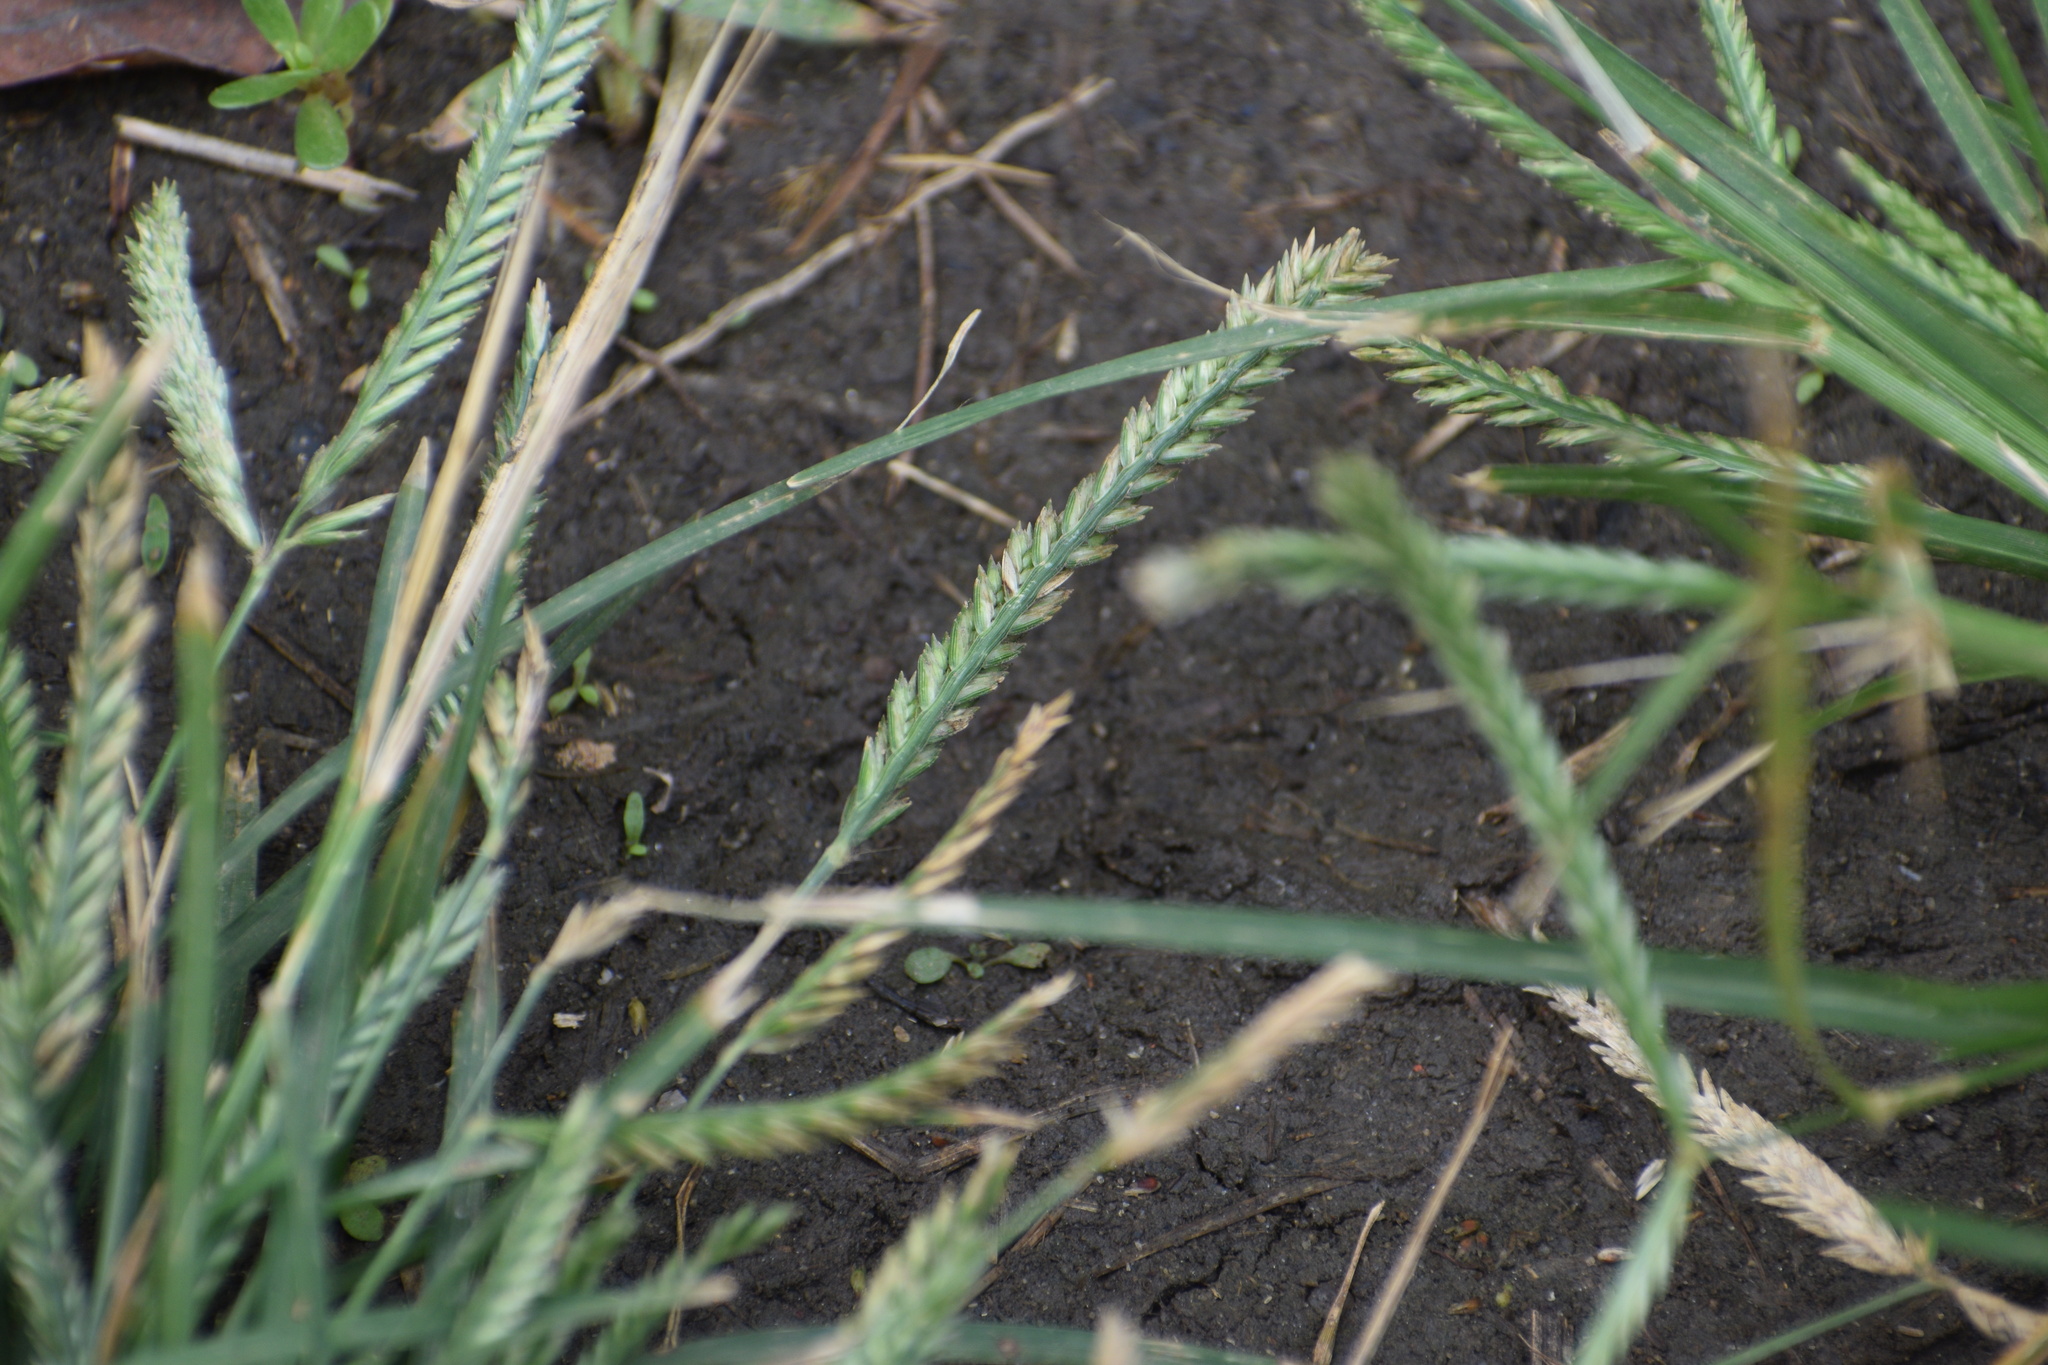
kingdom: Plantae
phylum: Tracheophyta
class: Liliopsida
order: Poales
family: Poaceae
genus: Eleusine
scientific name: Eleusine indica
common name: Yard-grass
